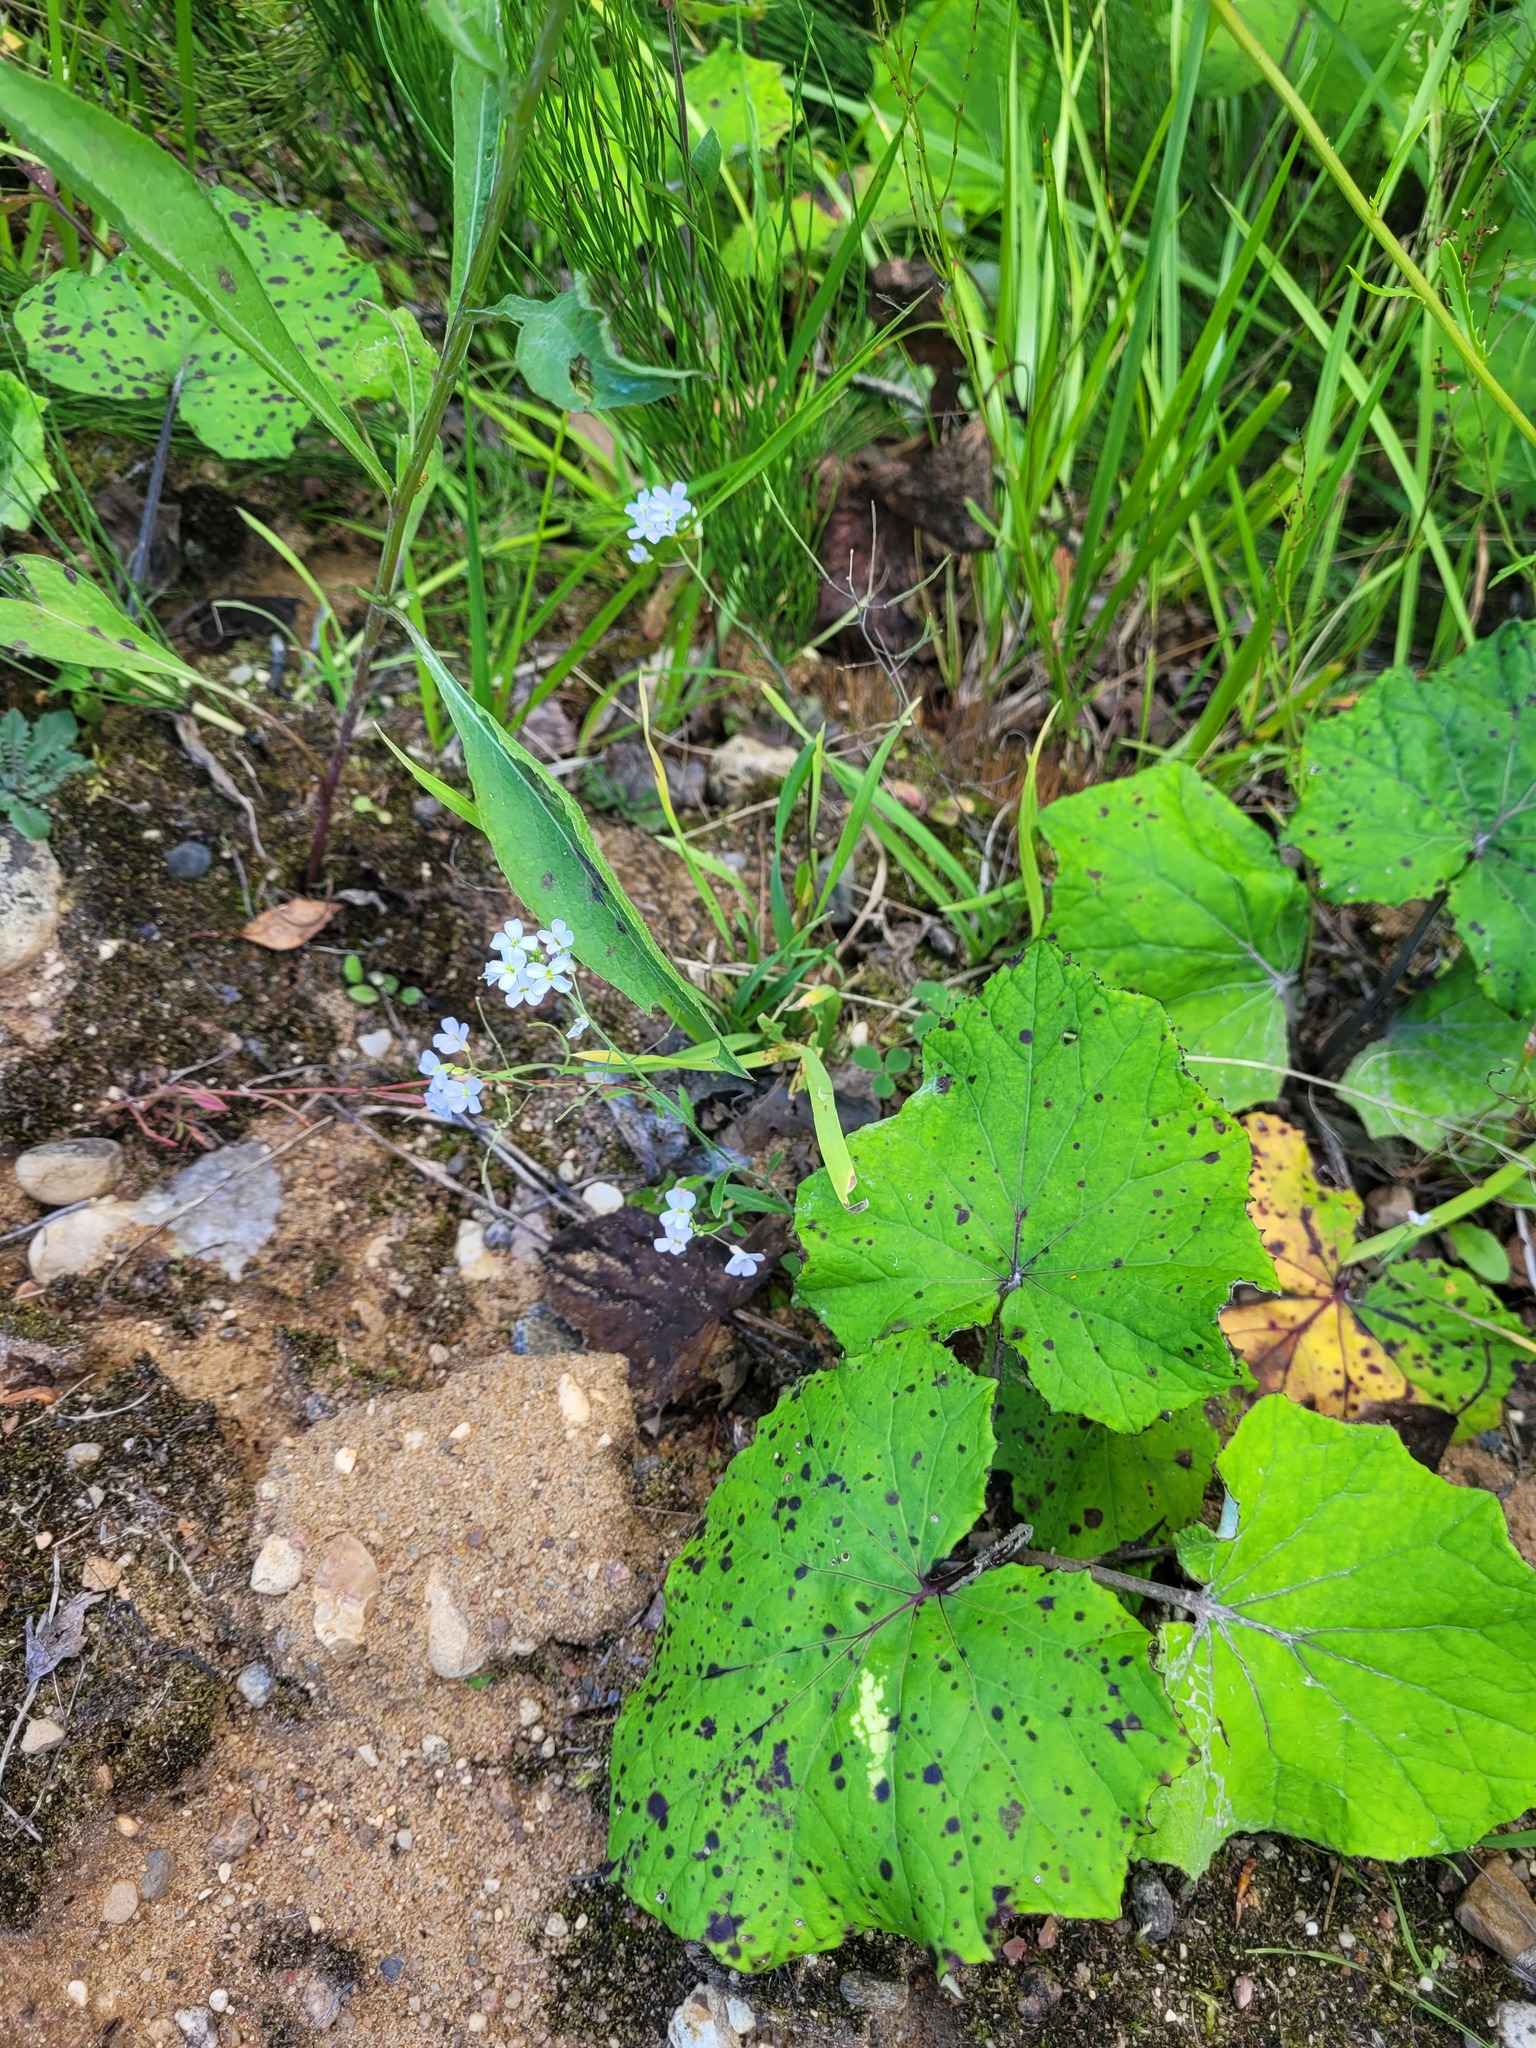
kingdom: Plantae
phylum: Tracheophyta
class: Magnoliopsida
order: Brassicales
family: Brassicaceae
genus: Arabidopsis
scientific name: Arabidopsis arenosa
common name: Sand rock-cress
